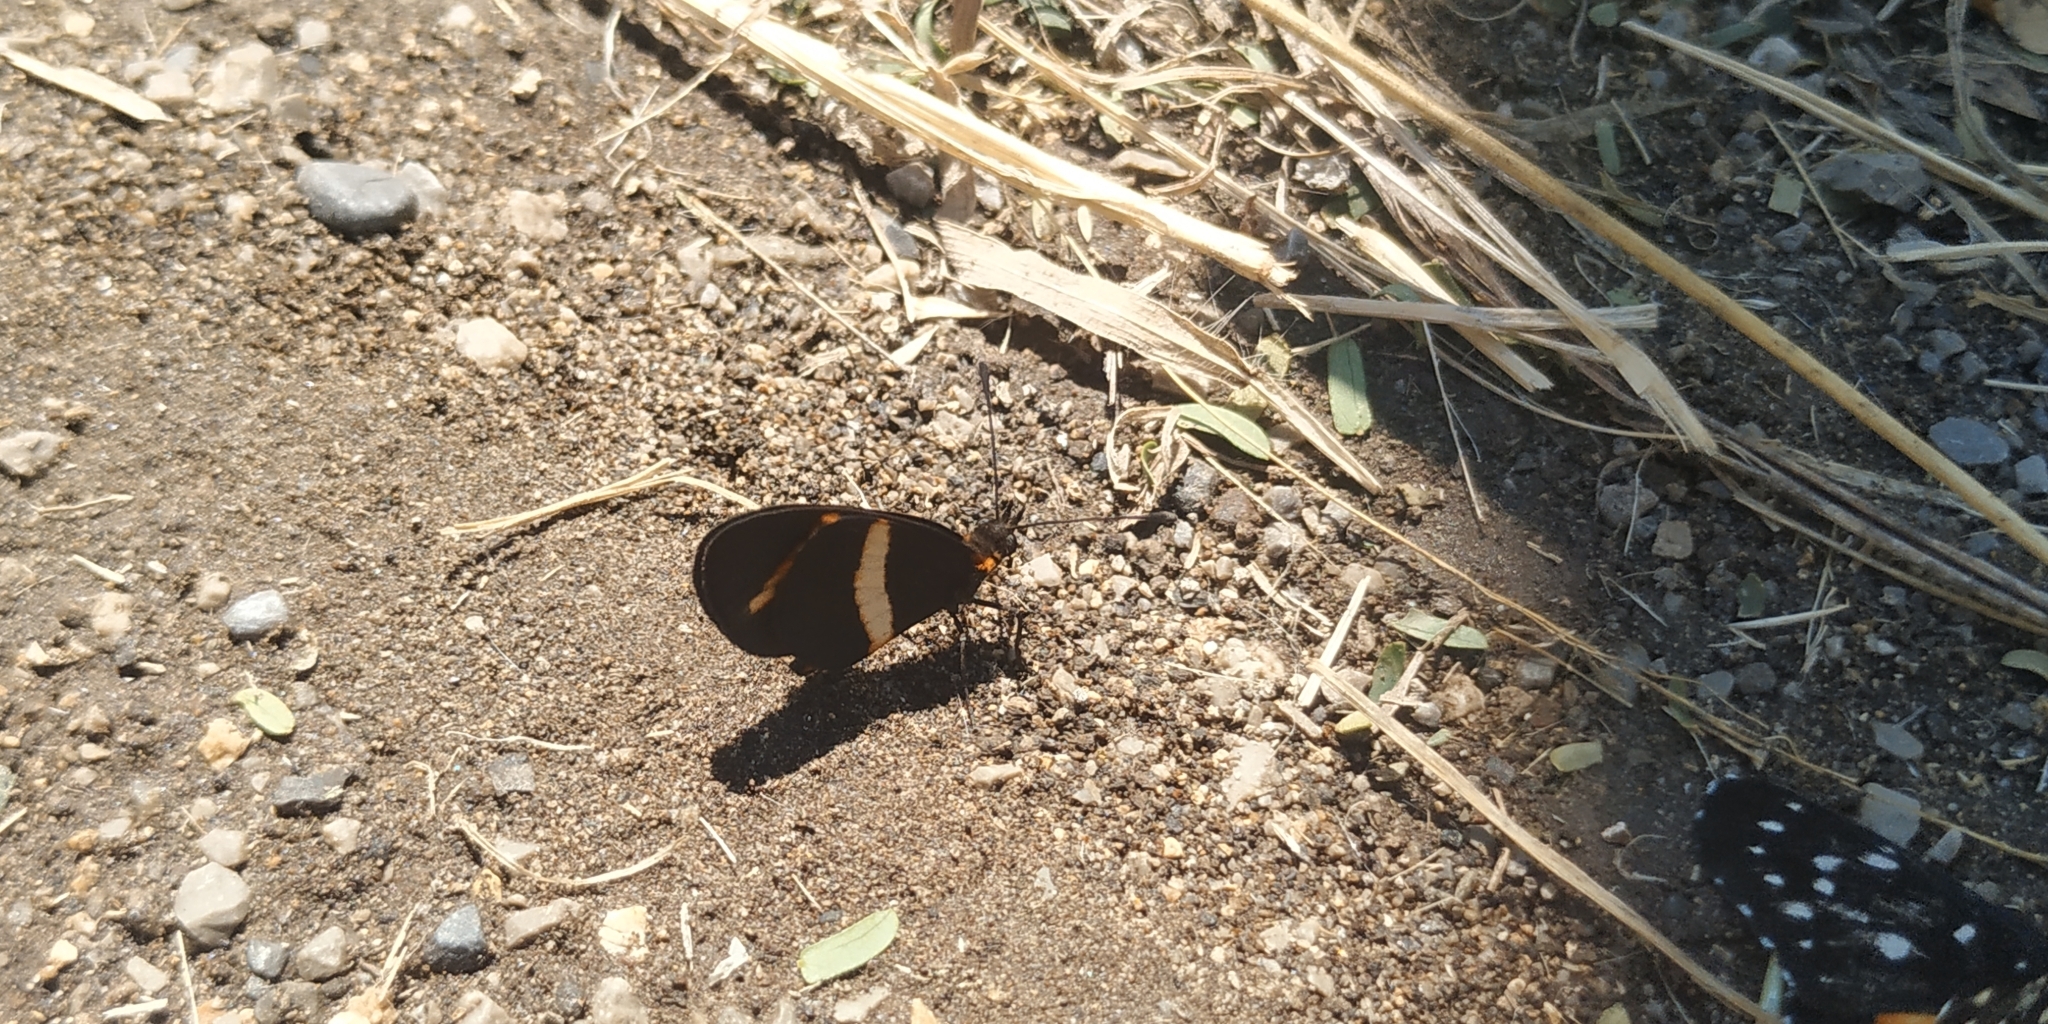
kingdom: Animalia
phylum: Arthropoda
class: Insecta
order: Lepidoptera
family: Nymphalidae
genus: Microtia
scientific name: Microtia elva
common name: Elf
